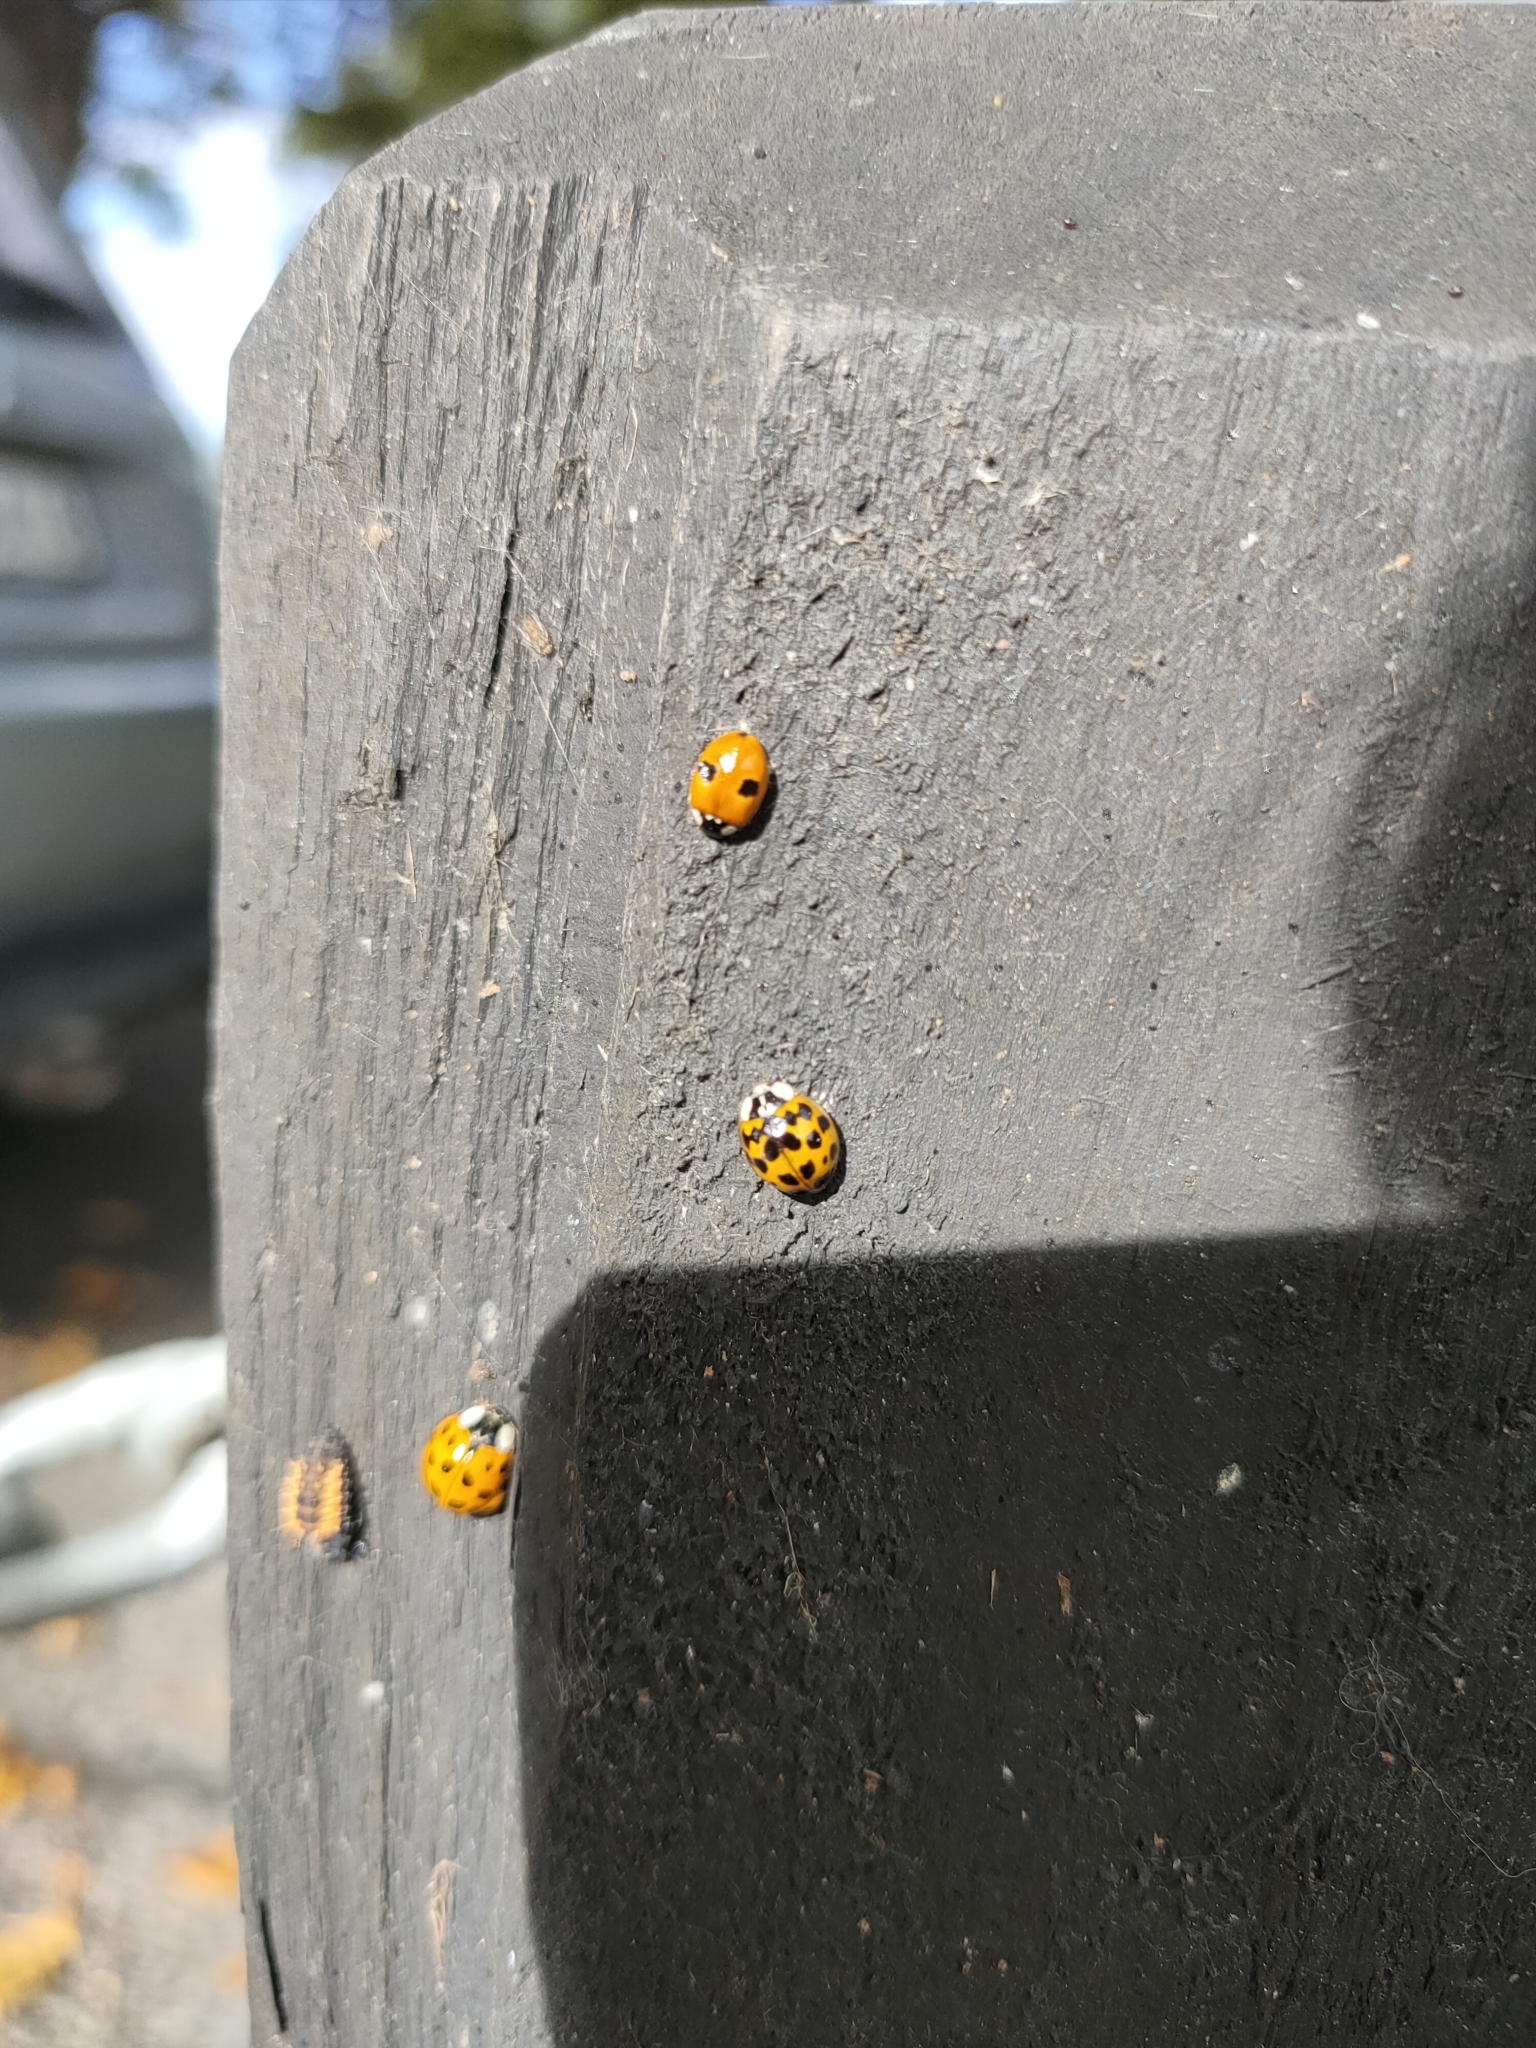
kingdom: Animalia
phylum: Arthropoda
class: Insecta
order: Coleoptera
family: Coccinellidae
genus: Adalia
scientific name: Adalia bipunctata
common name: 2-spot ladybird
